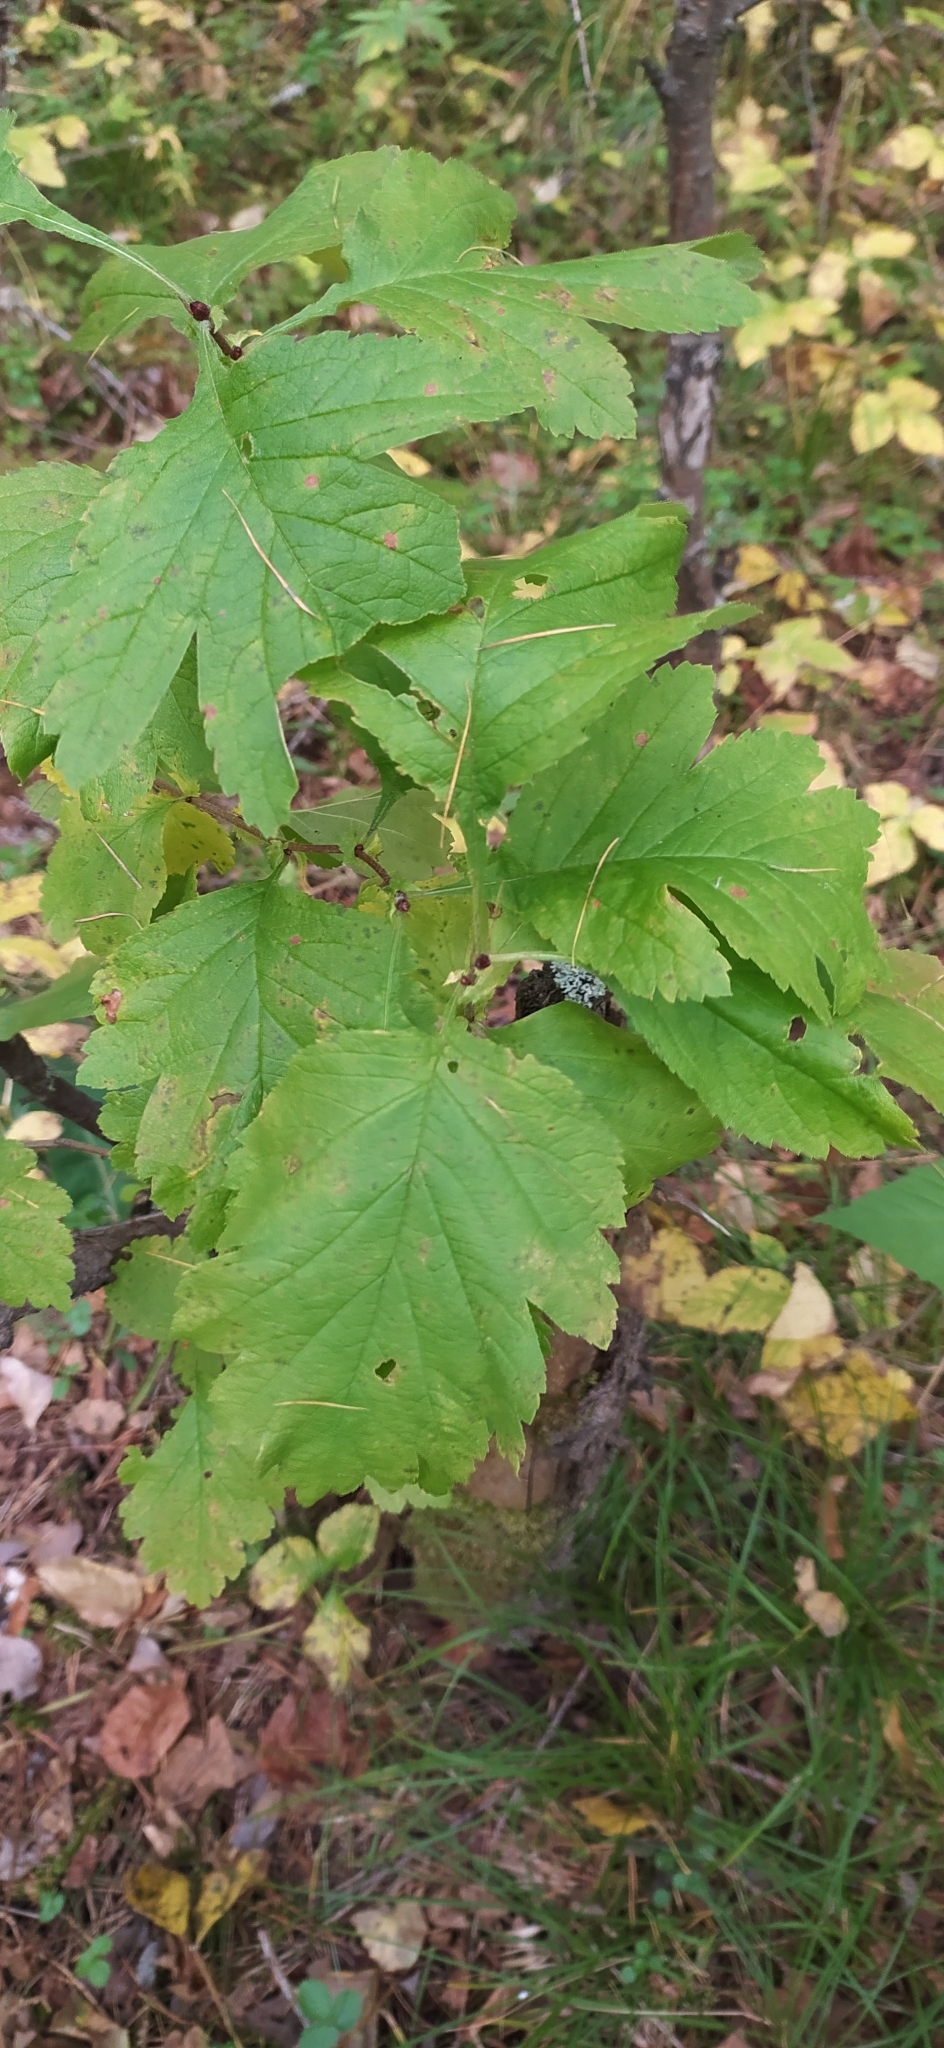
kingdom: Plantae
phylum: Tracheophyta
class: Magnoliopsida
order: Rosales
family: Rosaceae
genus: Crataegus
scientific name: Crataegus sanguinea
